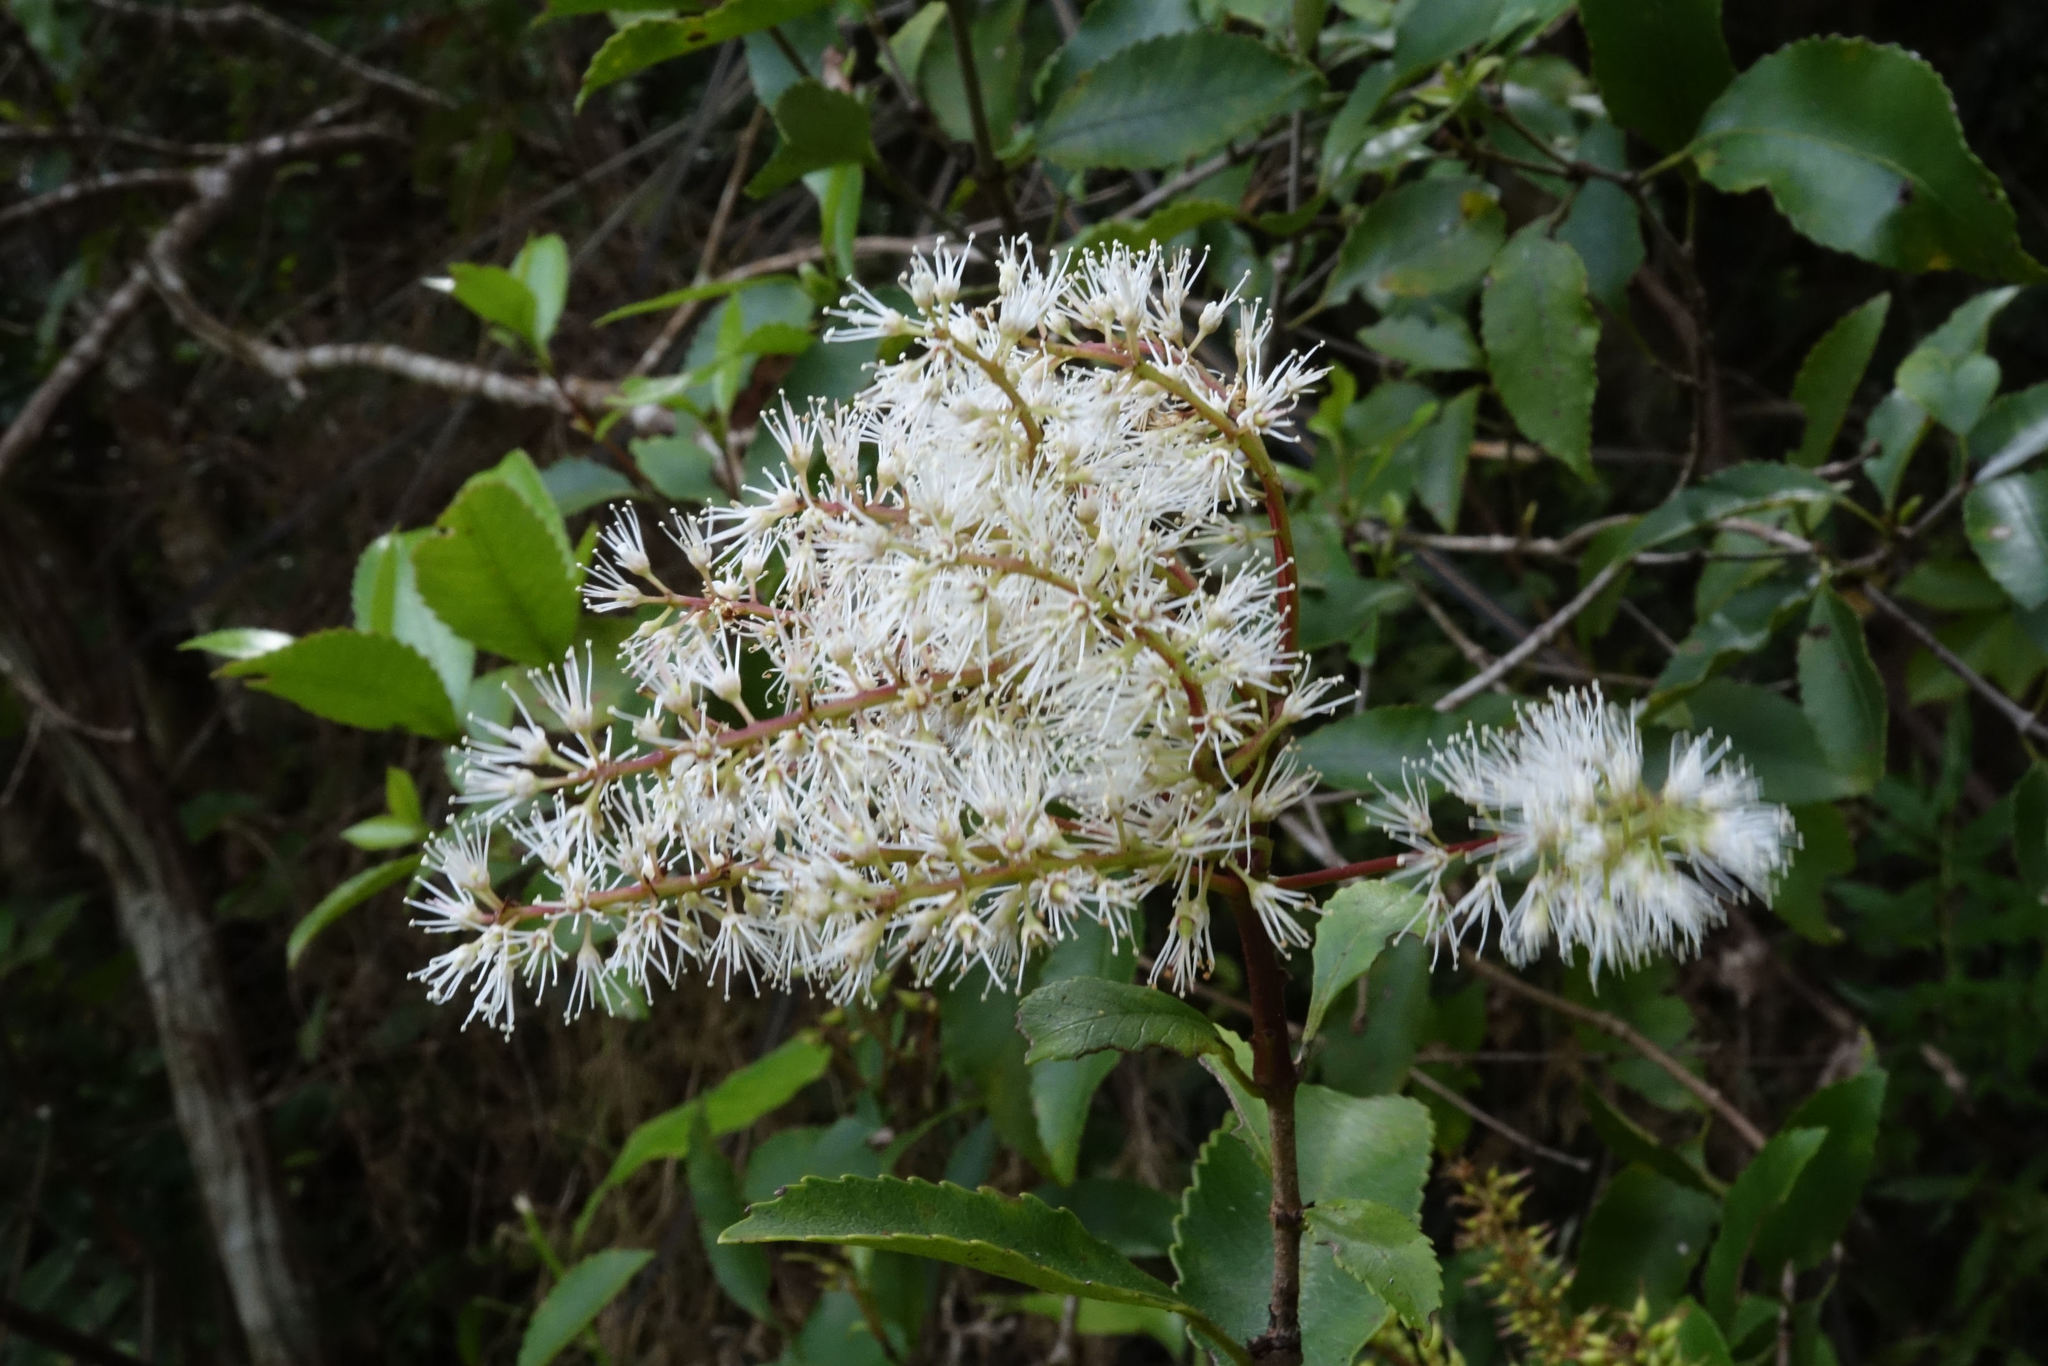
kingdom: Plantae
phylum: Tracheophyta
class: Magnoliopsida
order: Oxalidales
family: Cunoniaceae
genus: Pterophylla
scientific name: Pterophylla racemosa
